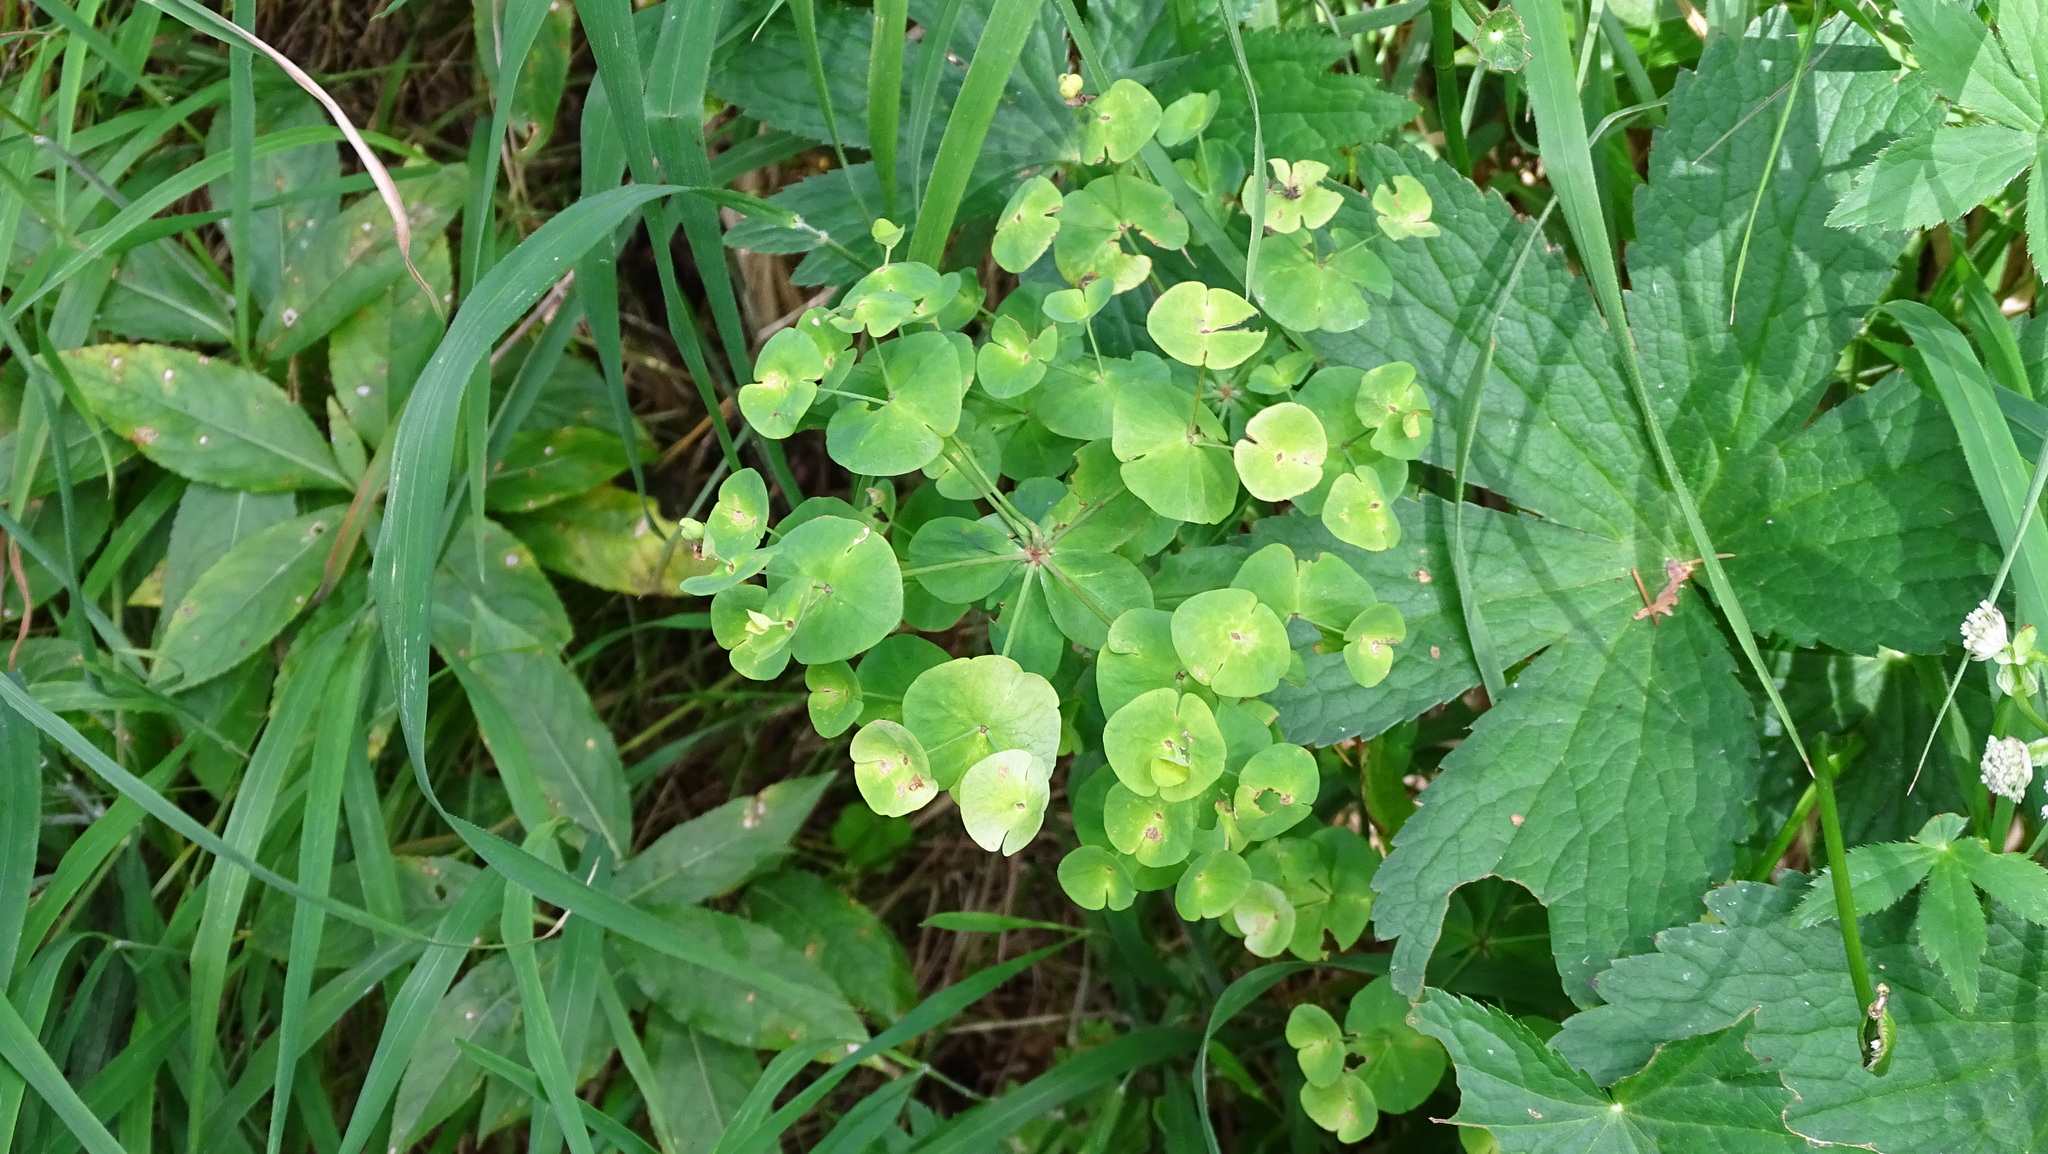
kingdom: Plantae
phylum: Tracheophyta
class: Magnoliopsida
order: Malpighiales
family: Euphorbiaceae
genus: Euphorbia
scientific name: Euphorbia amygdaloides
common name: Wood spurge
